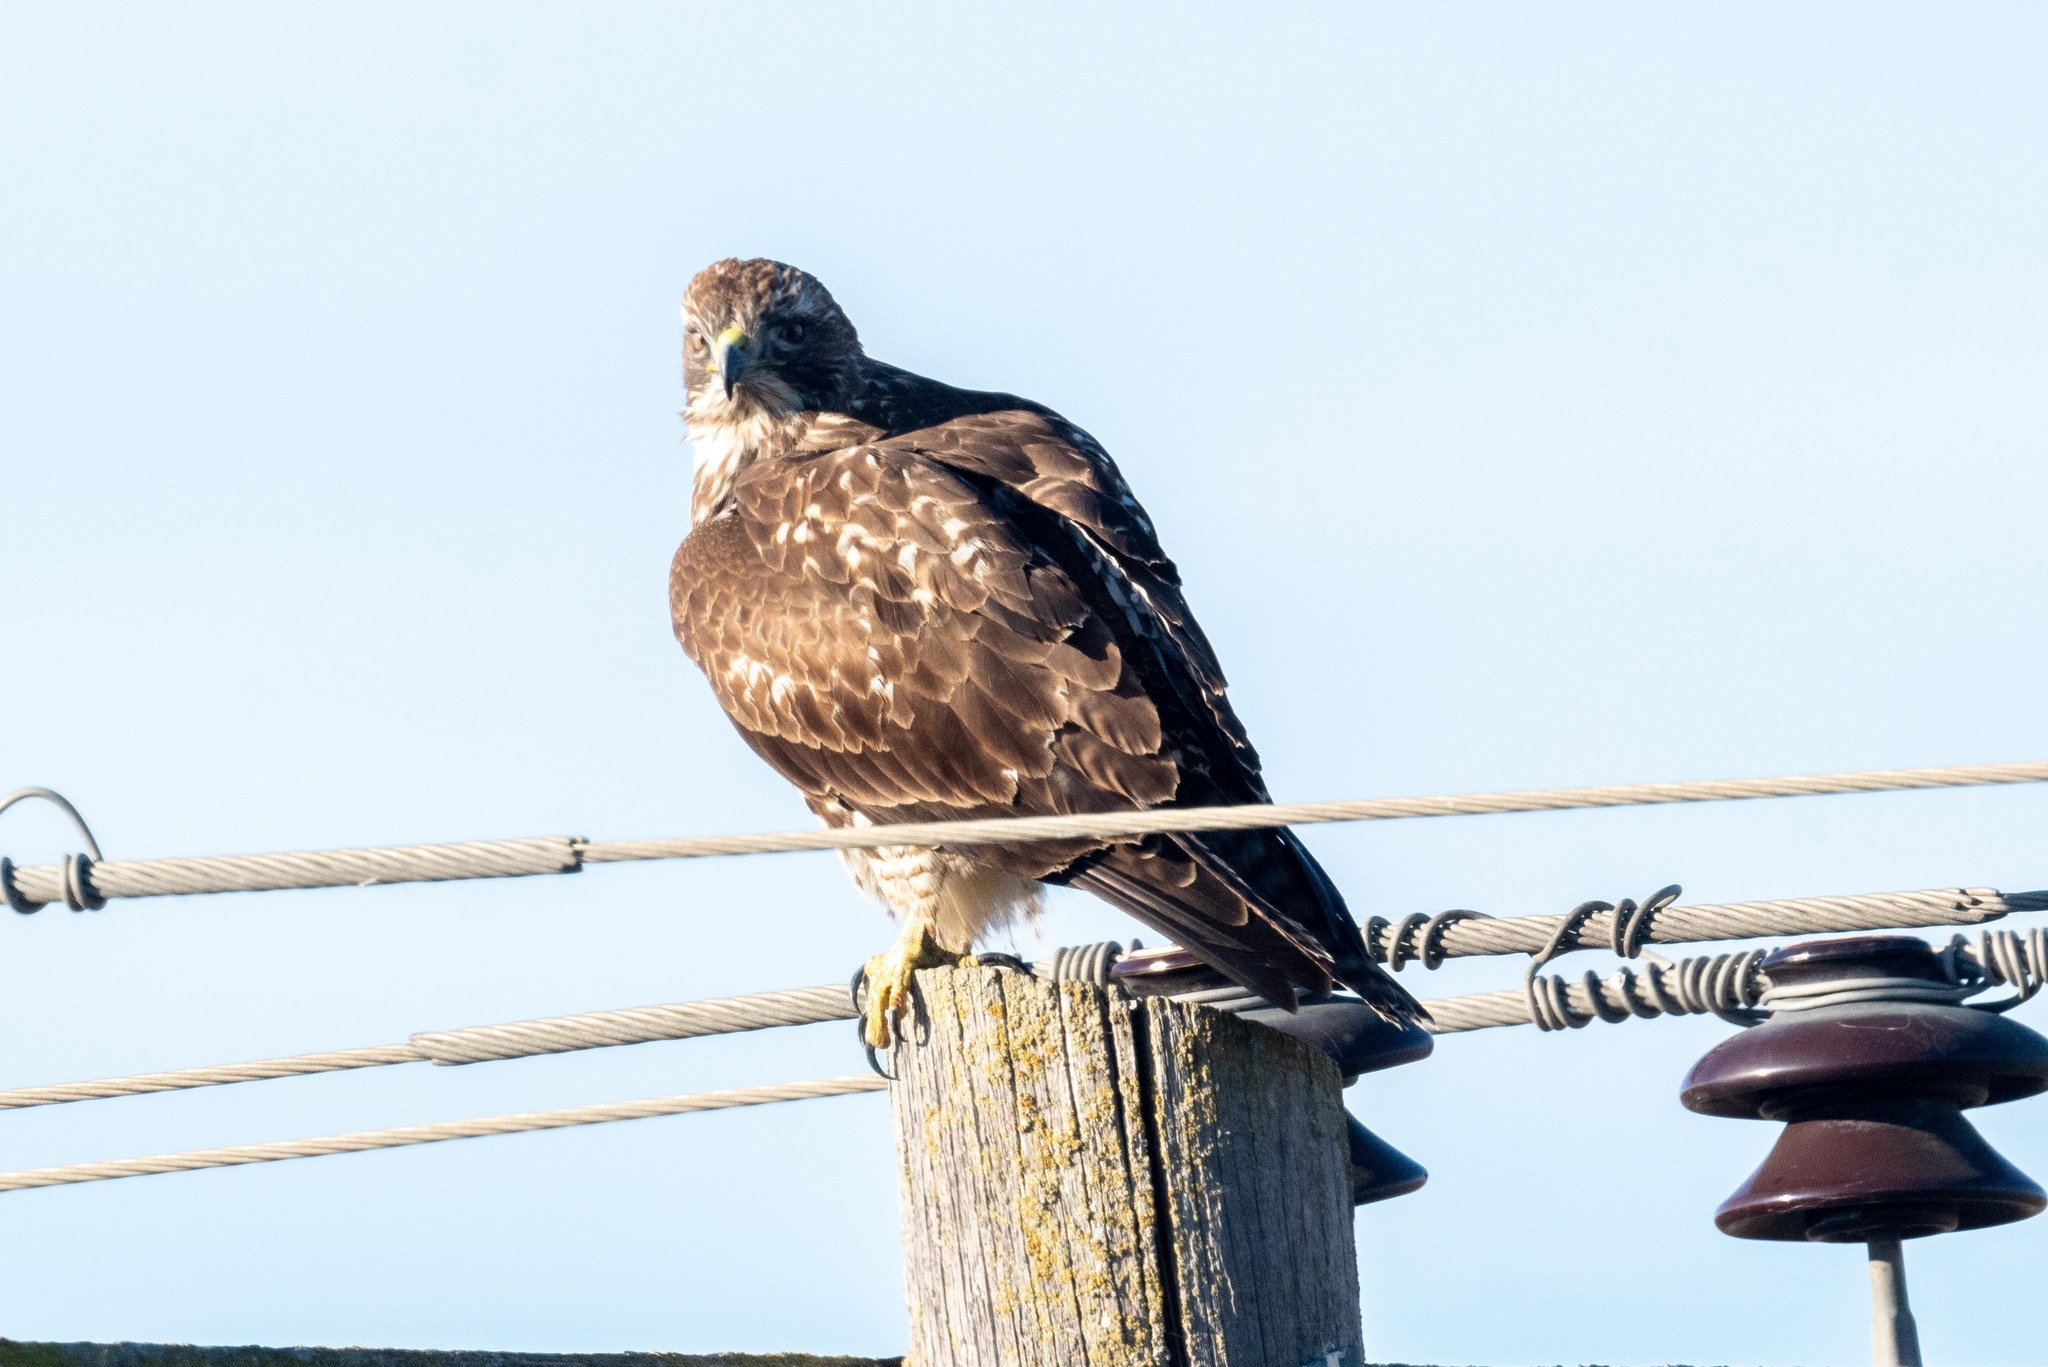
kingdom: Animalia
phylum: Chordata
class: Aves
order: Accipitriformes
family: Accipitridae
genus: Buteo
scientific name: Buteo jamaicensis
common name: Red-tailed hawk
